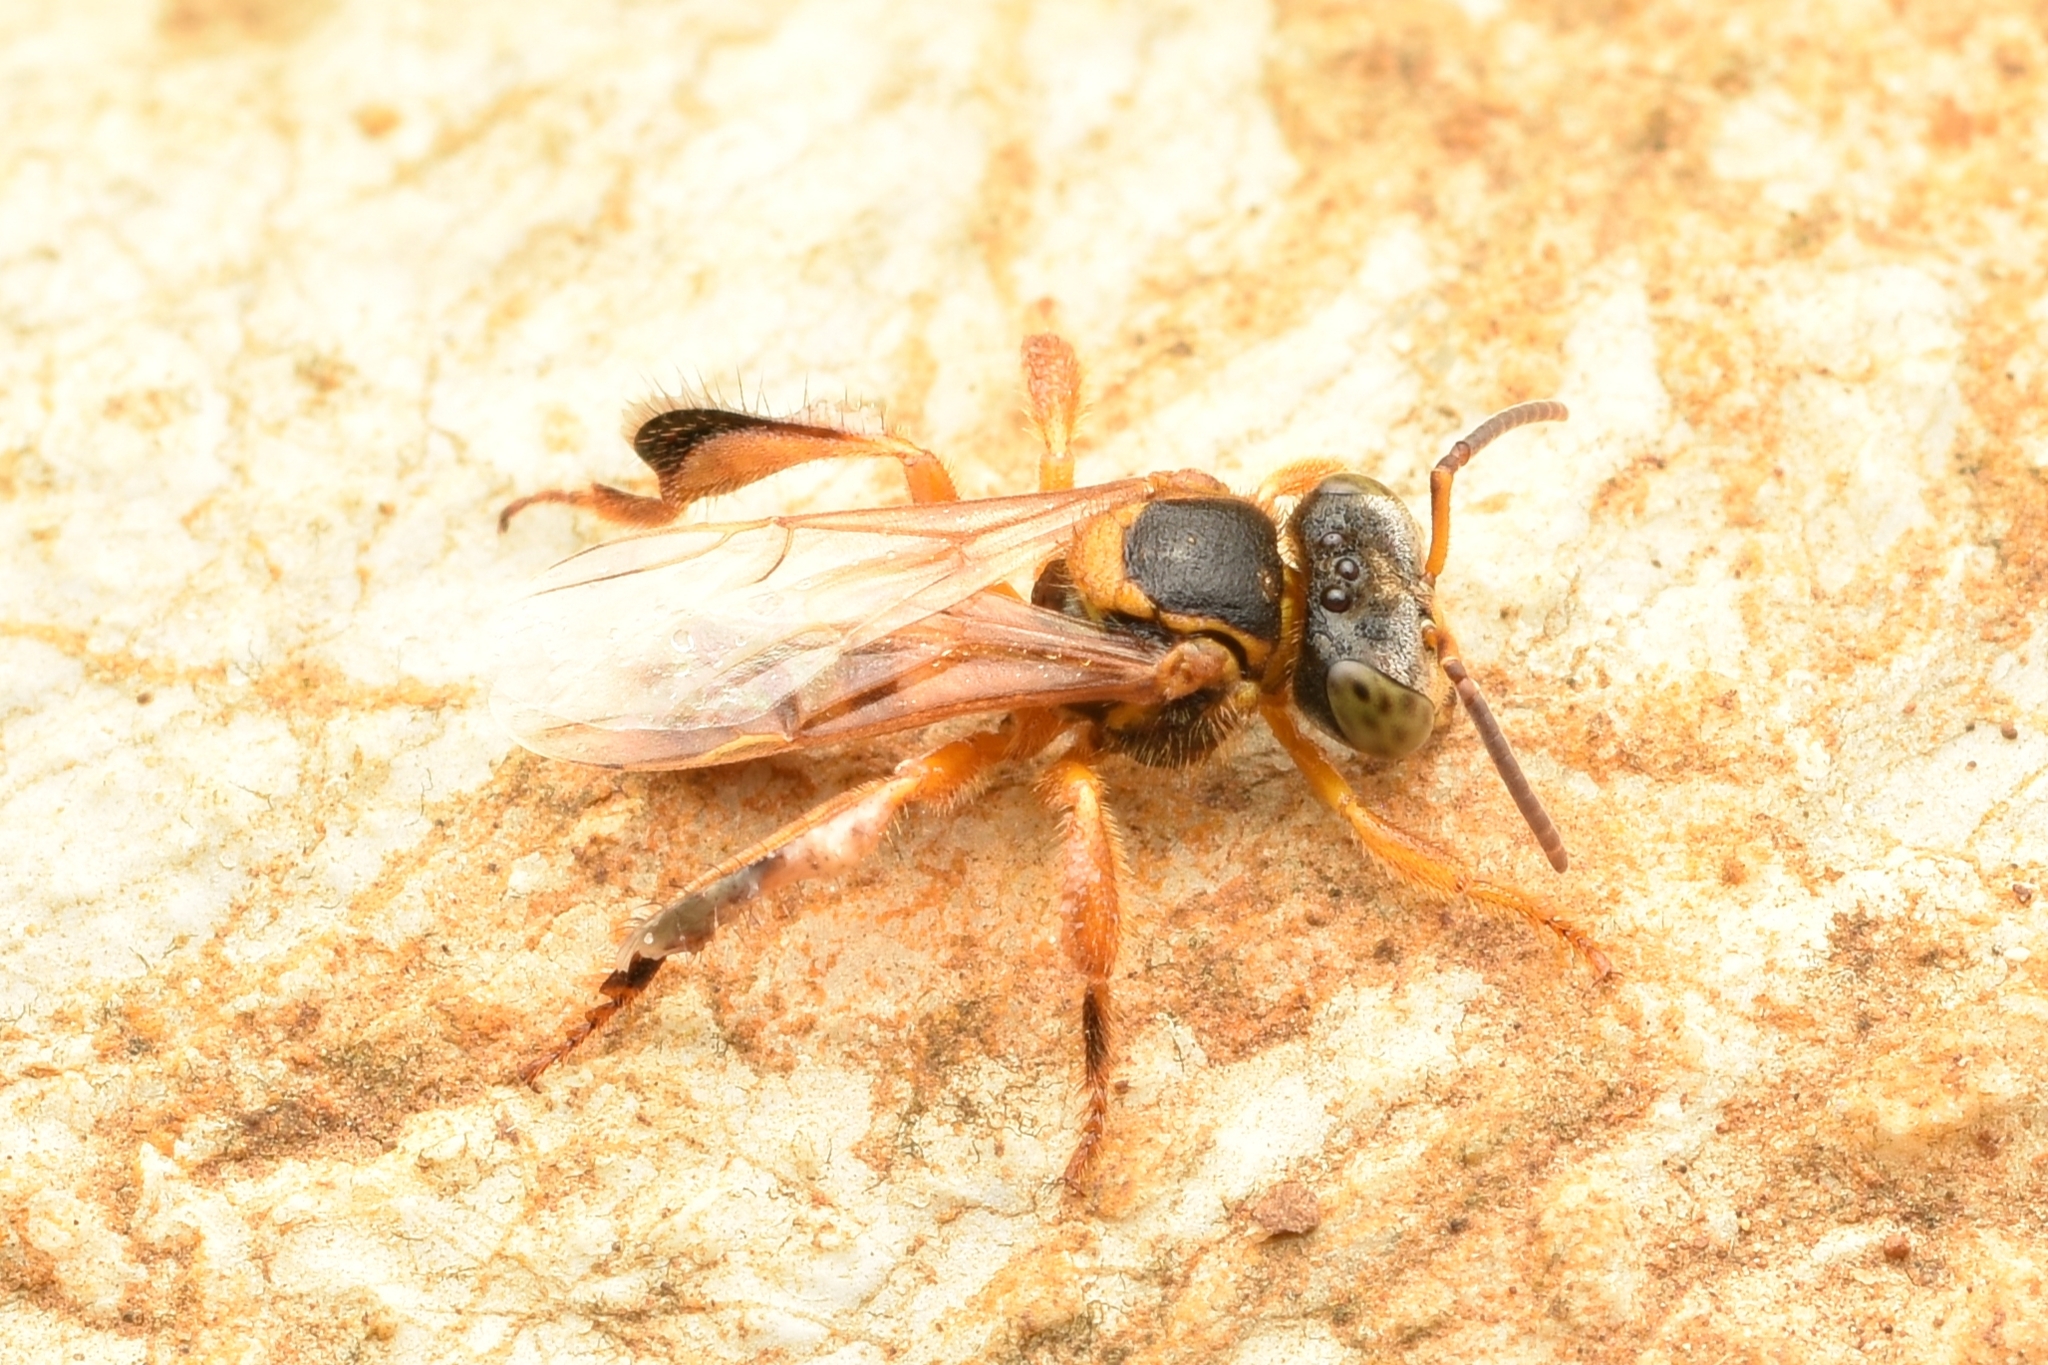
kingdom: Animalia
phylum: Arthropoda
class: Insecta
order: Hymenoptera
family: Apidae
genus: Tetragona
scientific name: Tetragona ziegleri
